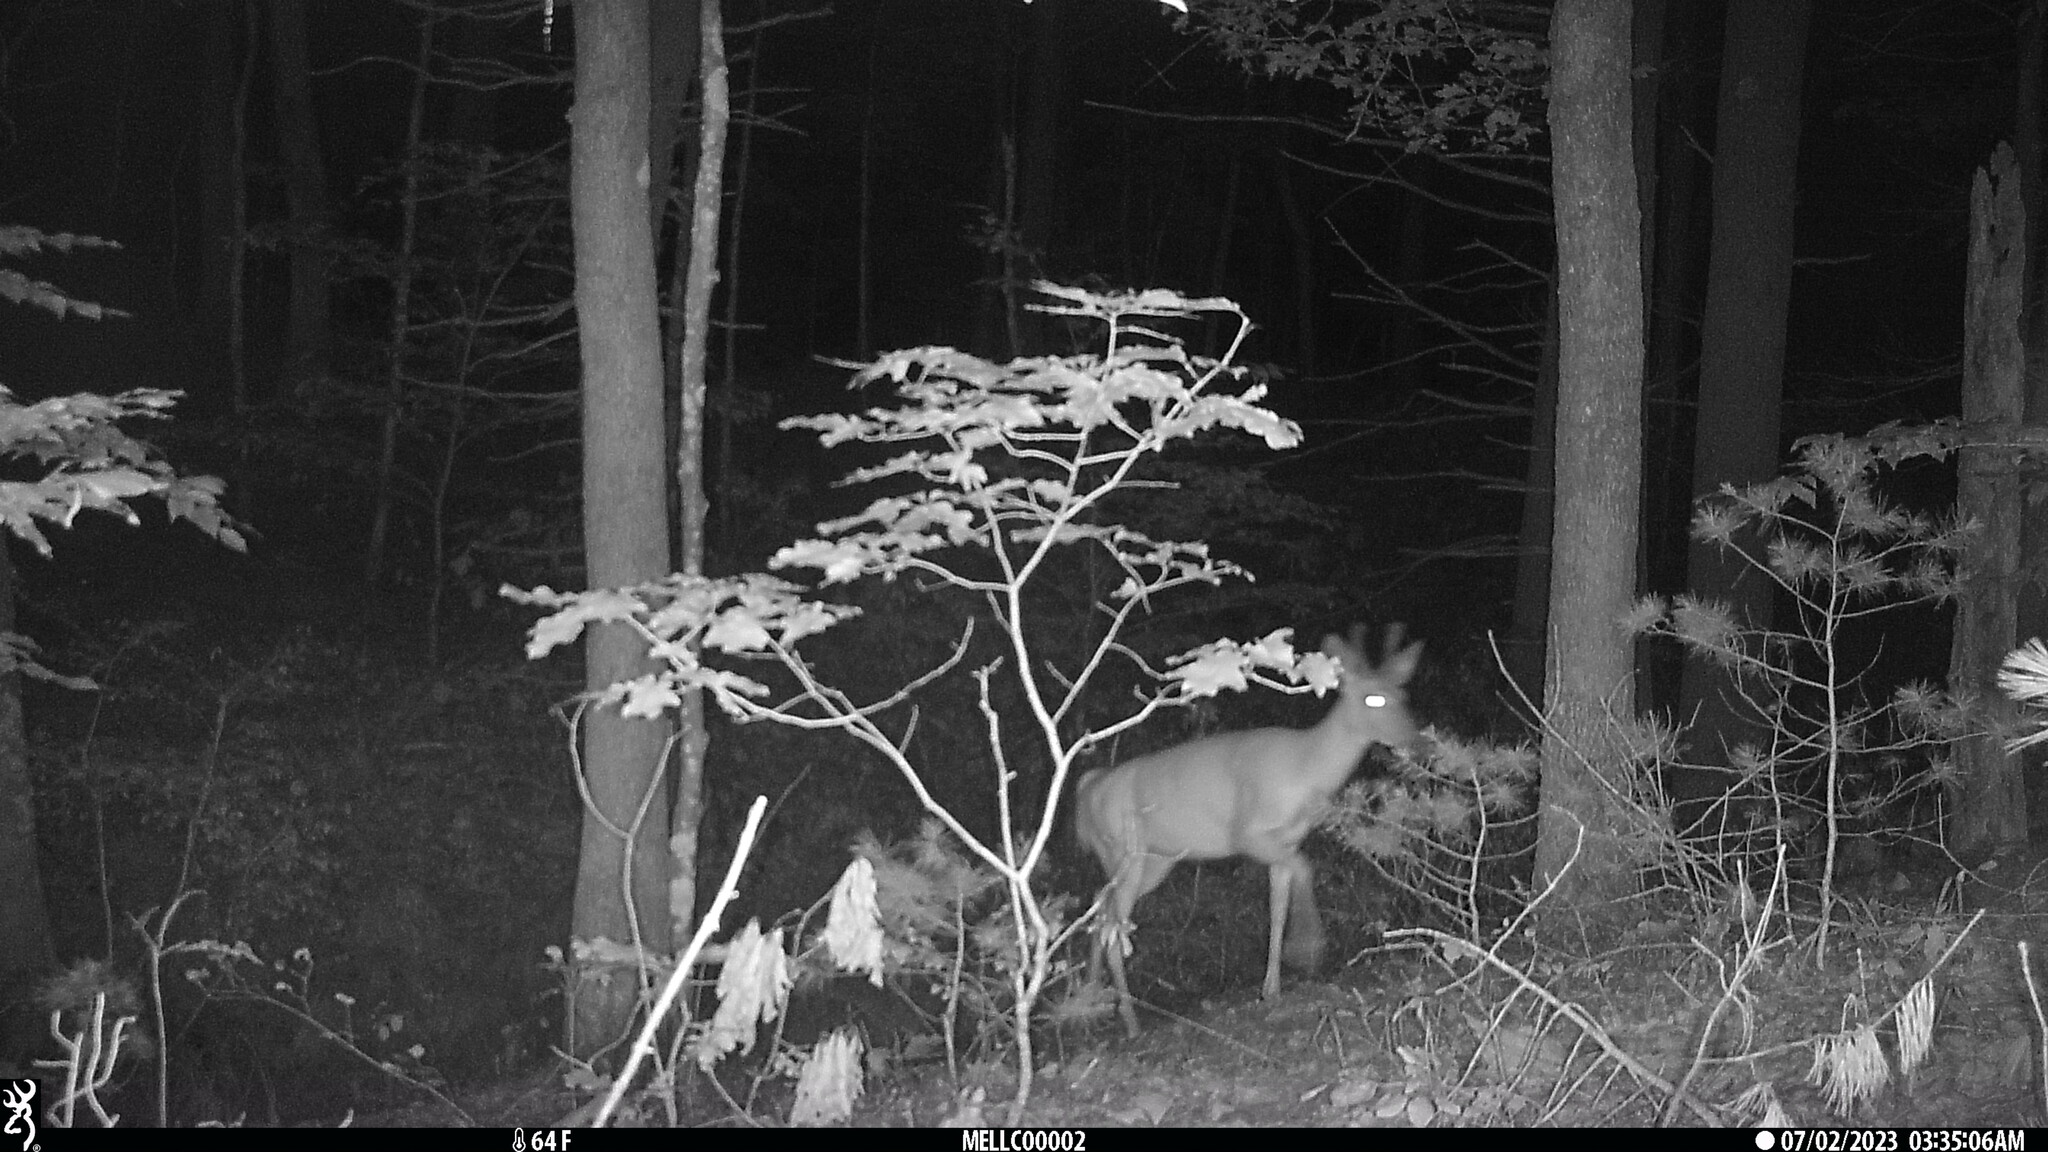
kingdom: Animalia
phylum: Chordata
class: Mammalia
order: Artiodactyla
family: Cervidae
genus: Odocoileus
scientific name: Odocoileus virginianus
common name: White-tailed deer
